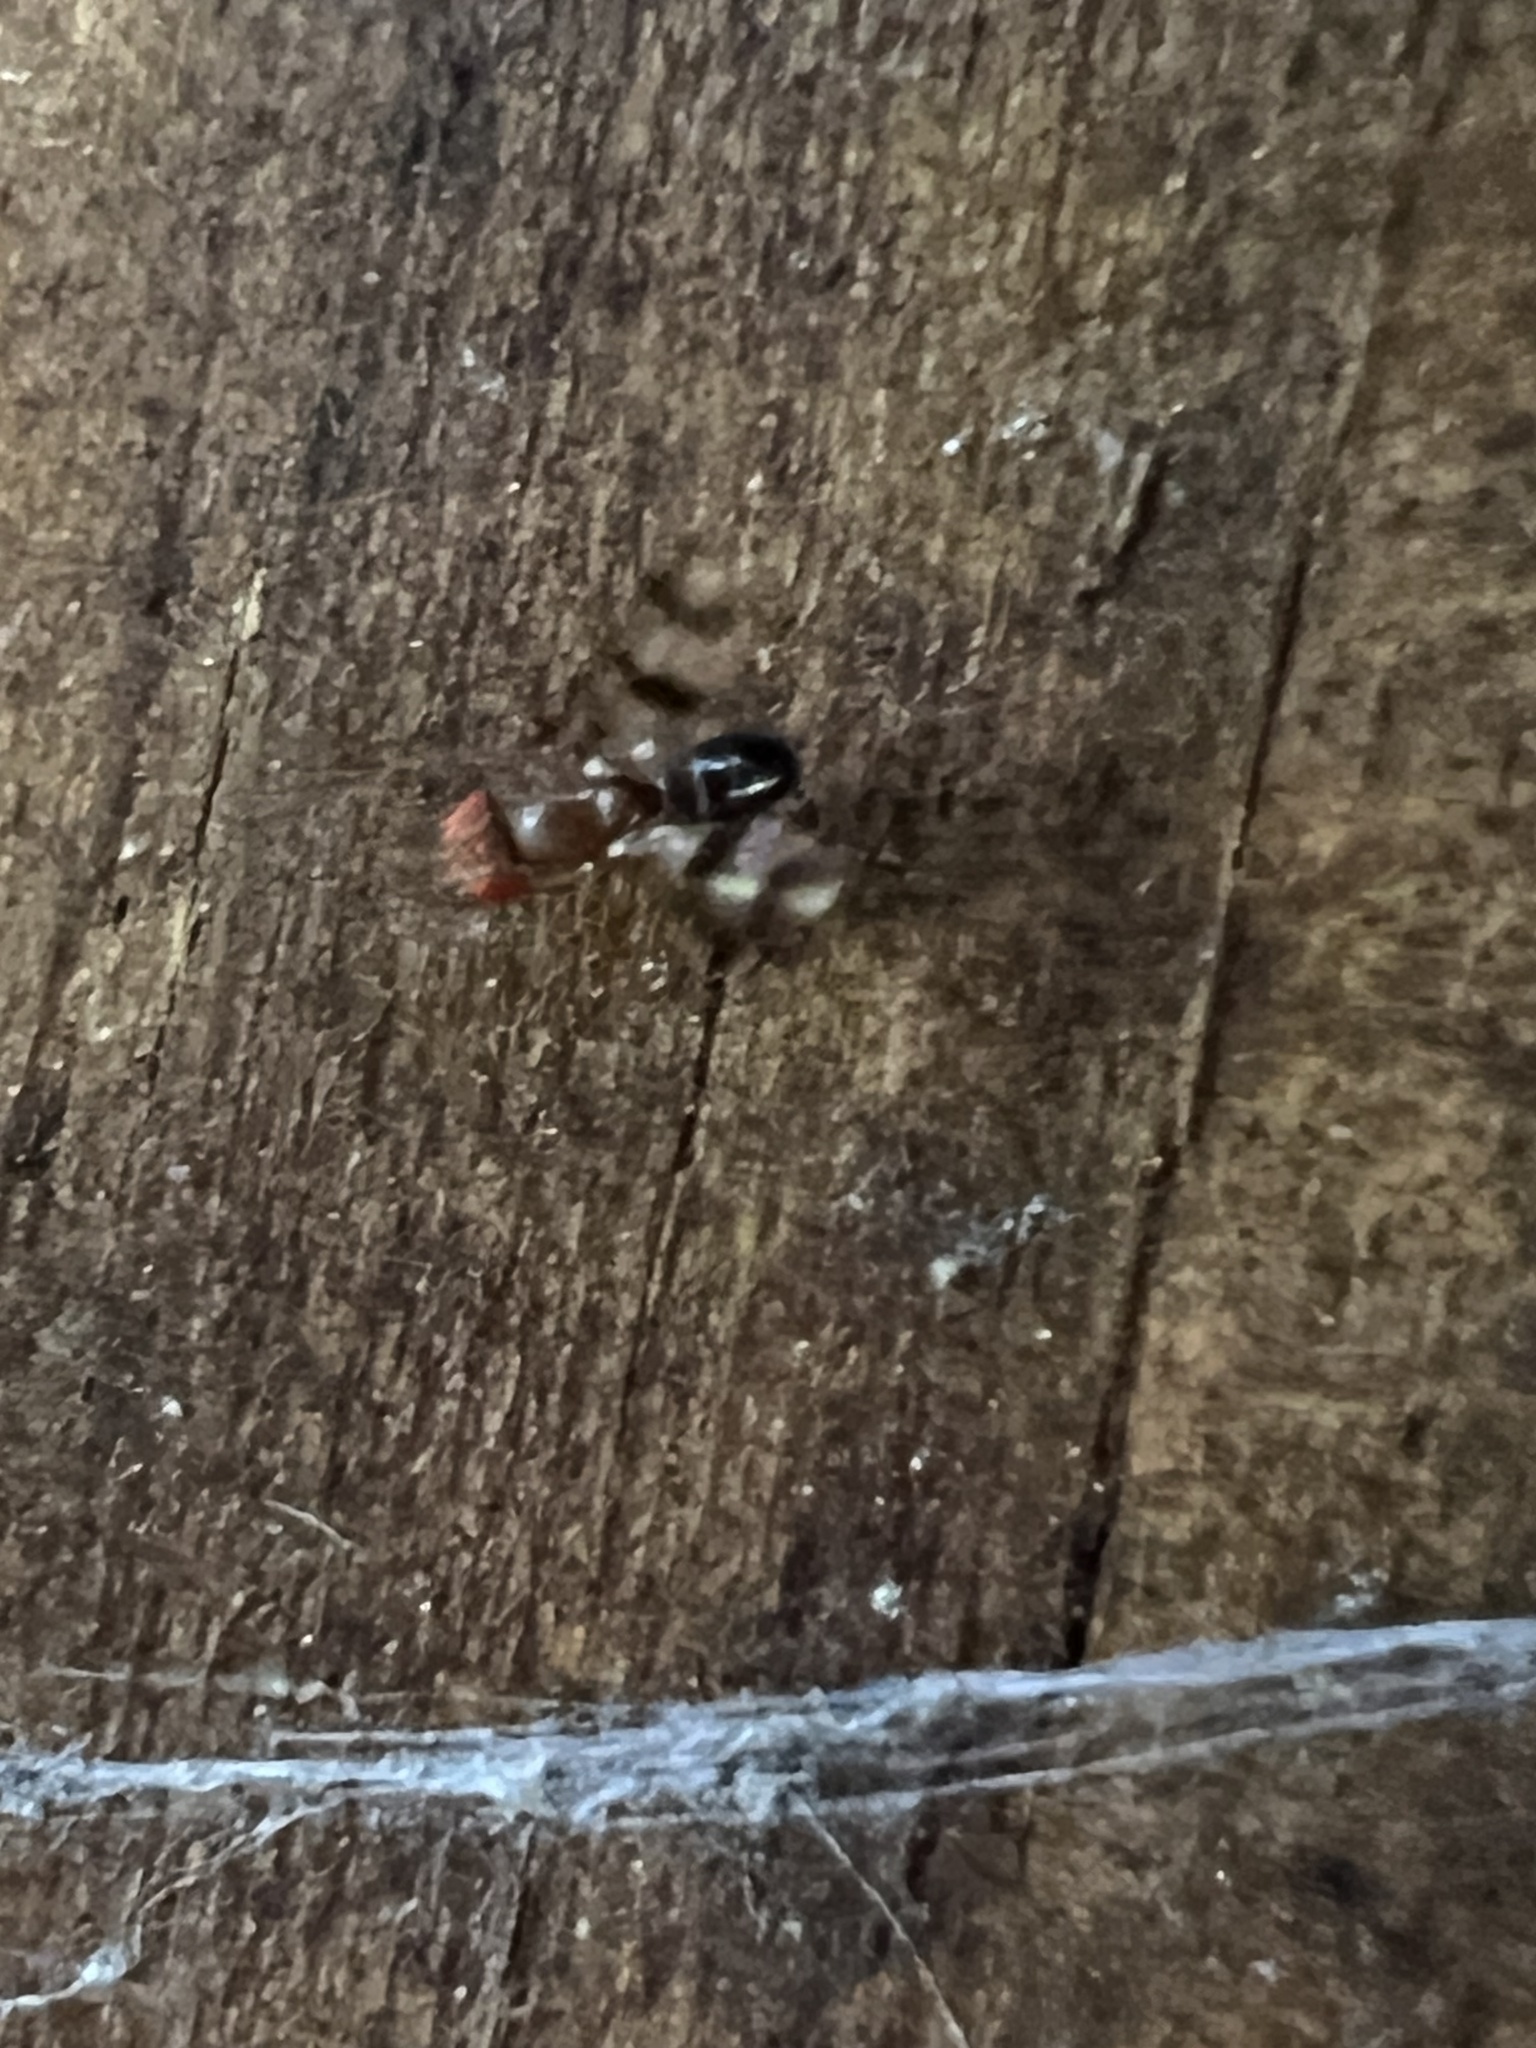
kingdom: Animalia
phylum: Arthropoda
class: Insecta
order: Diptera
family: Drosophilidae
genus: Chymomyza
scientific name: Chymomyza amoena
